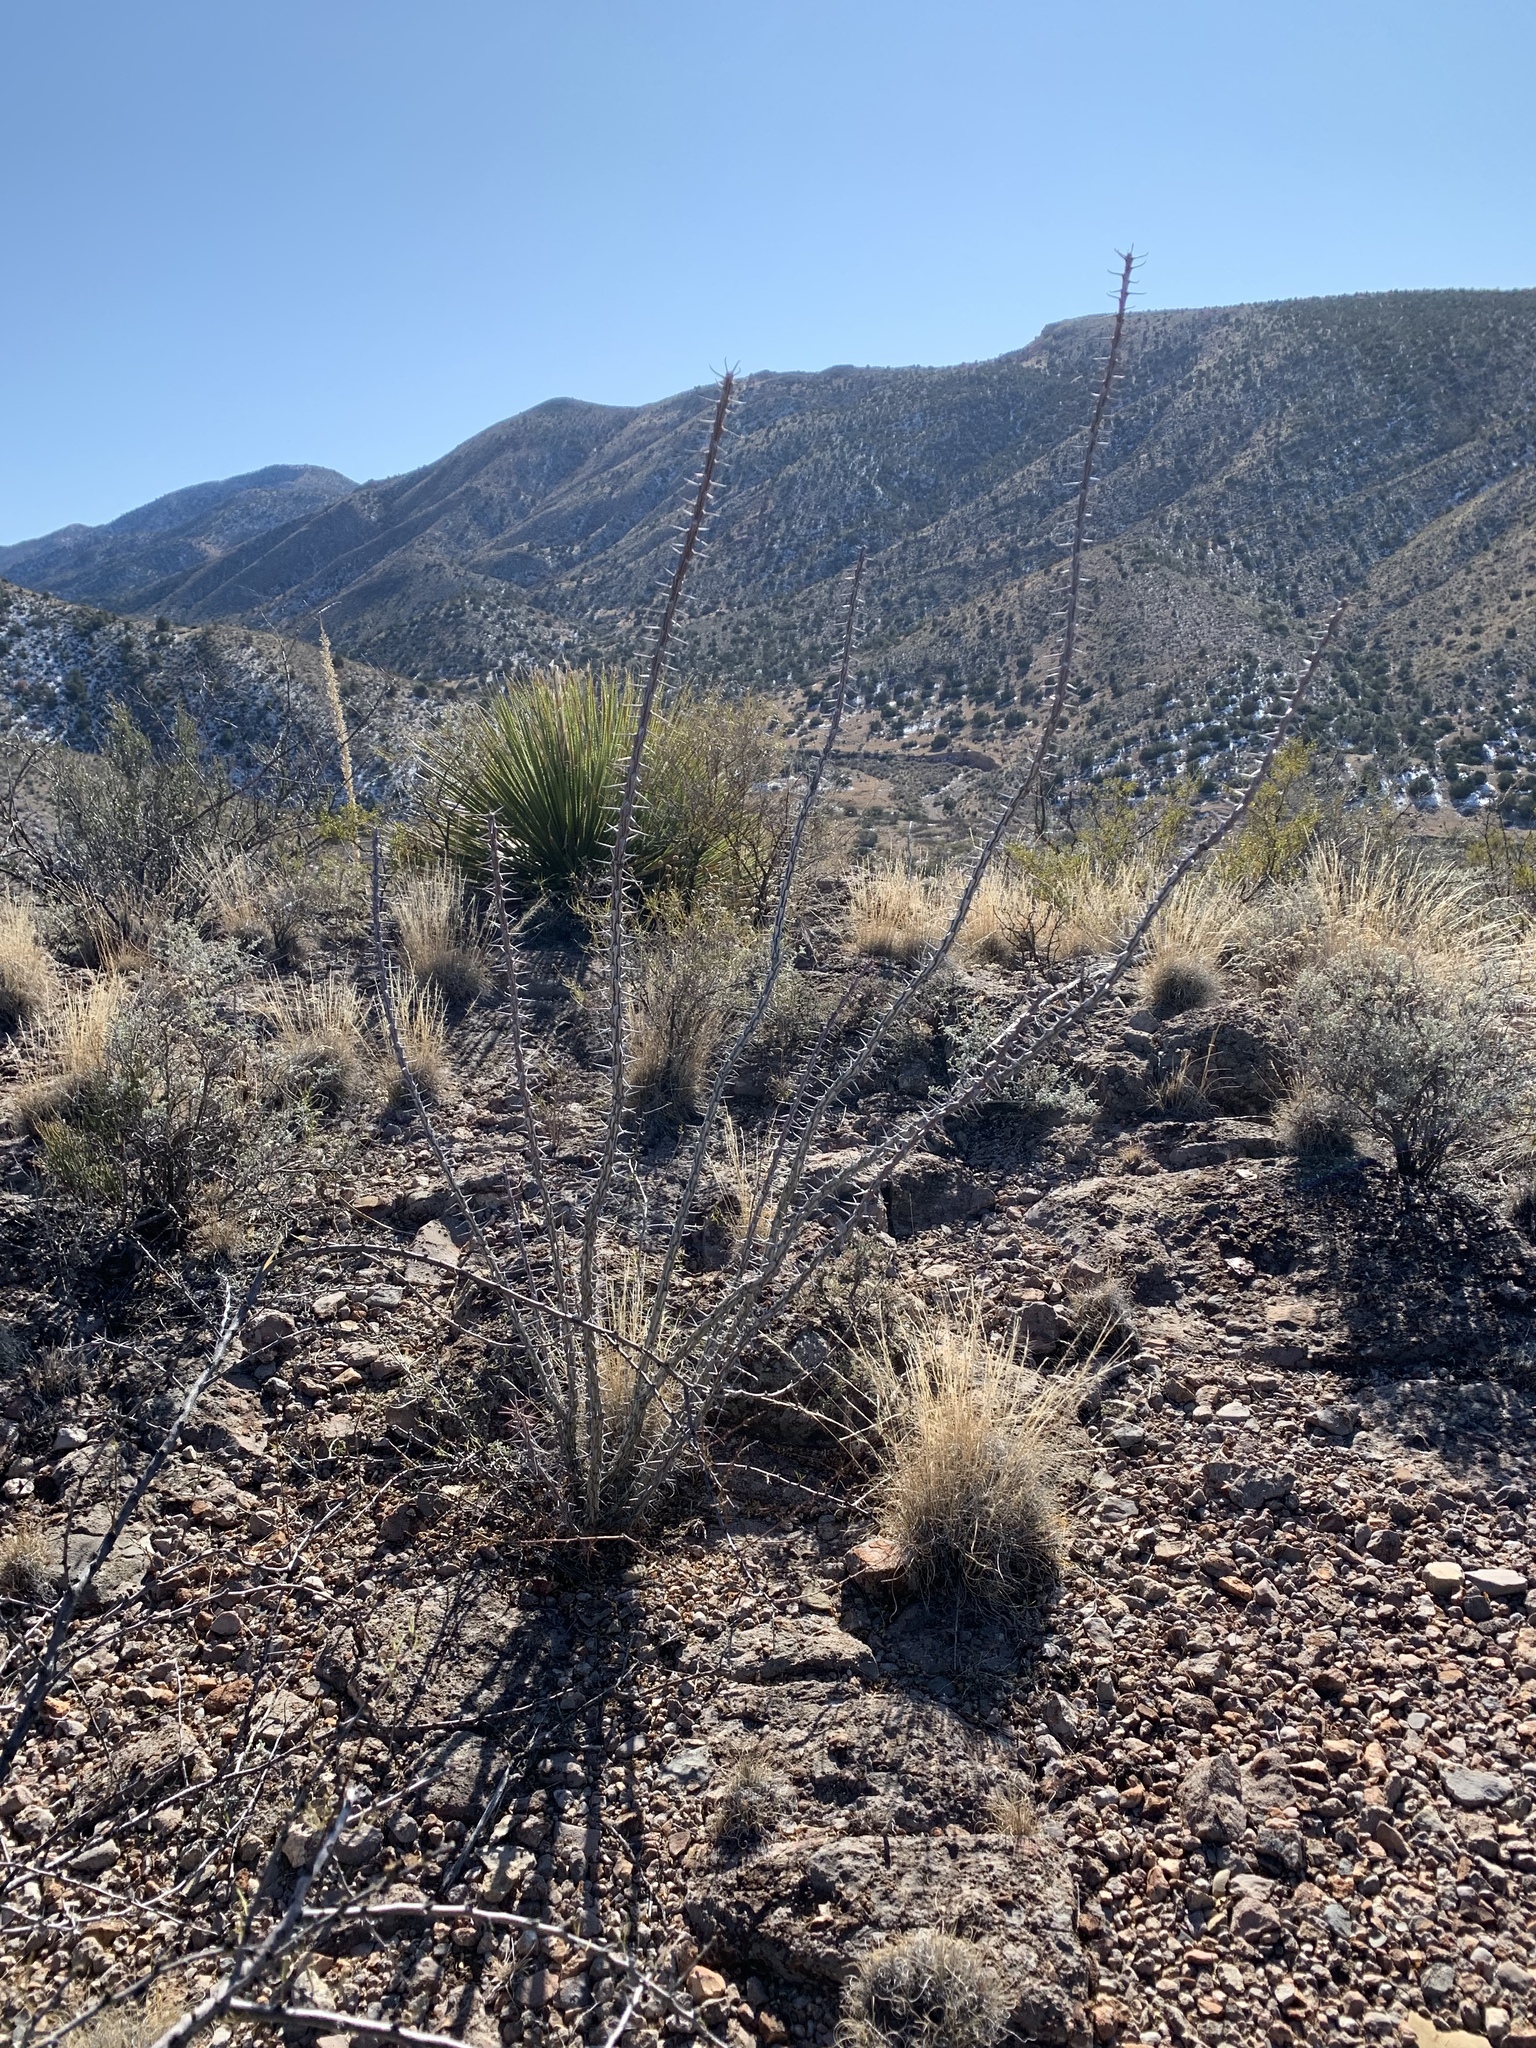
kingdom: Plantae
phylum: Tracheophyta
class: Magnoliopsida
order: Ericales
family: Fouquieriaceae
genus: Fouquieria
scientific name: Fouquieria splendens
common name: Vine-cactus
